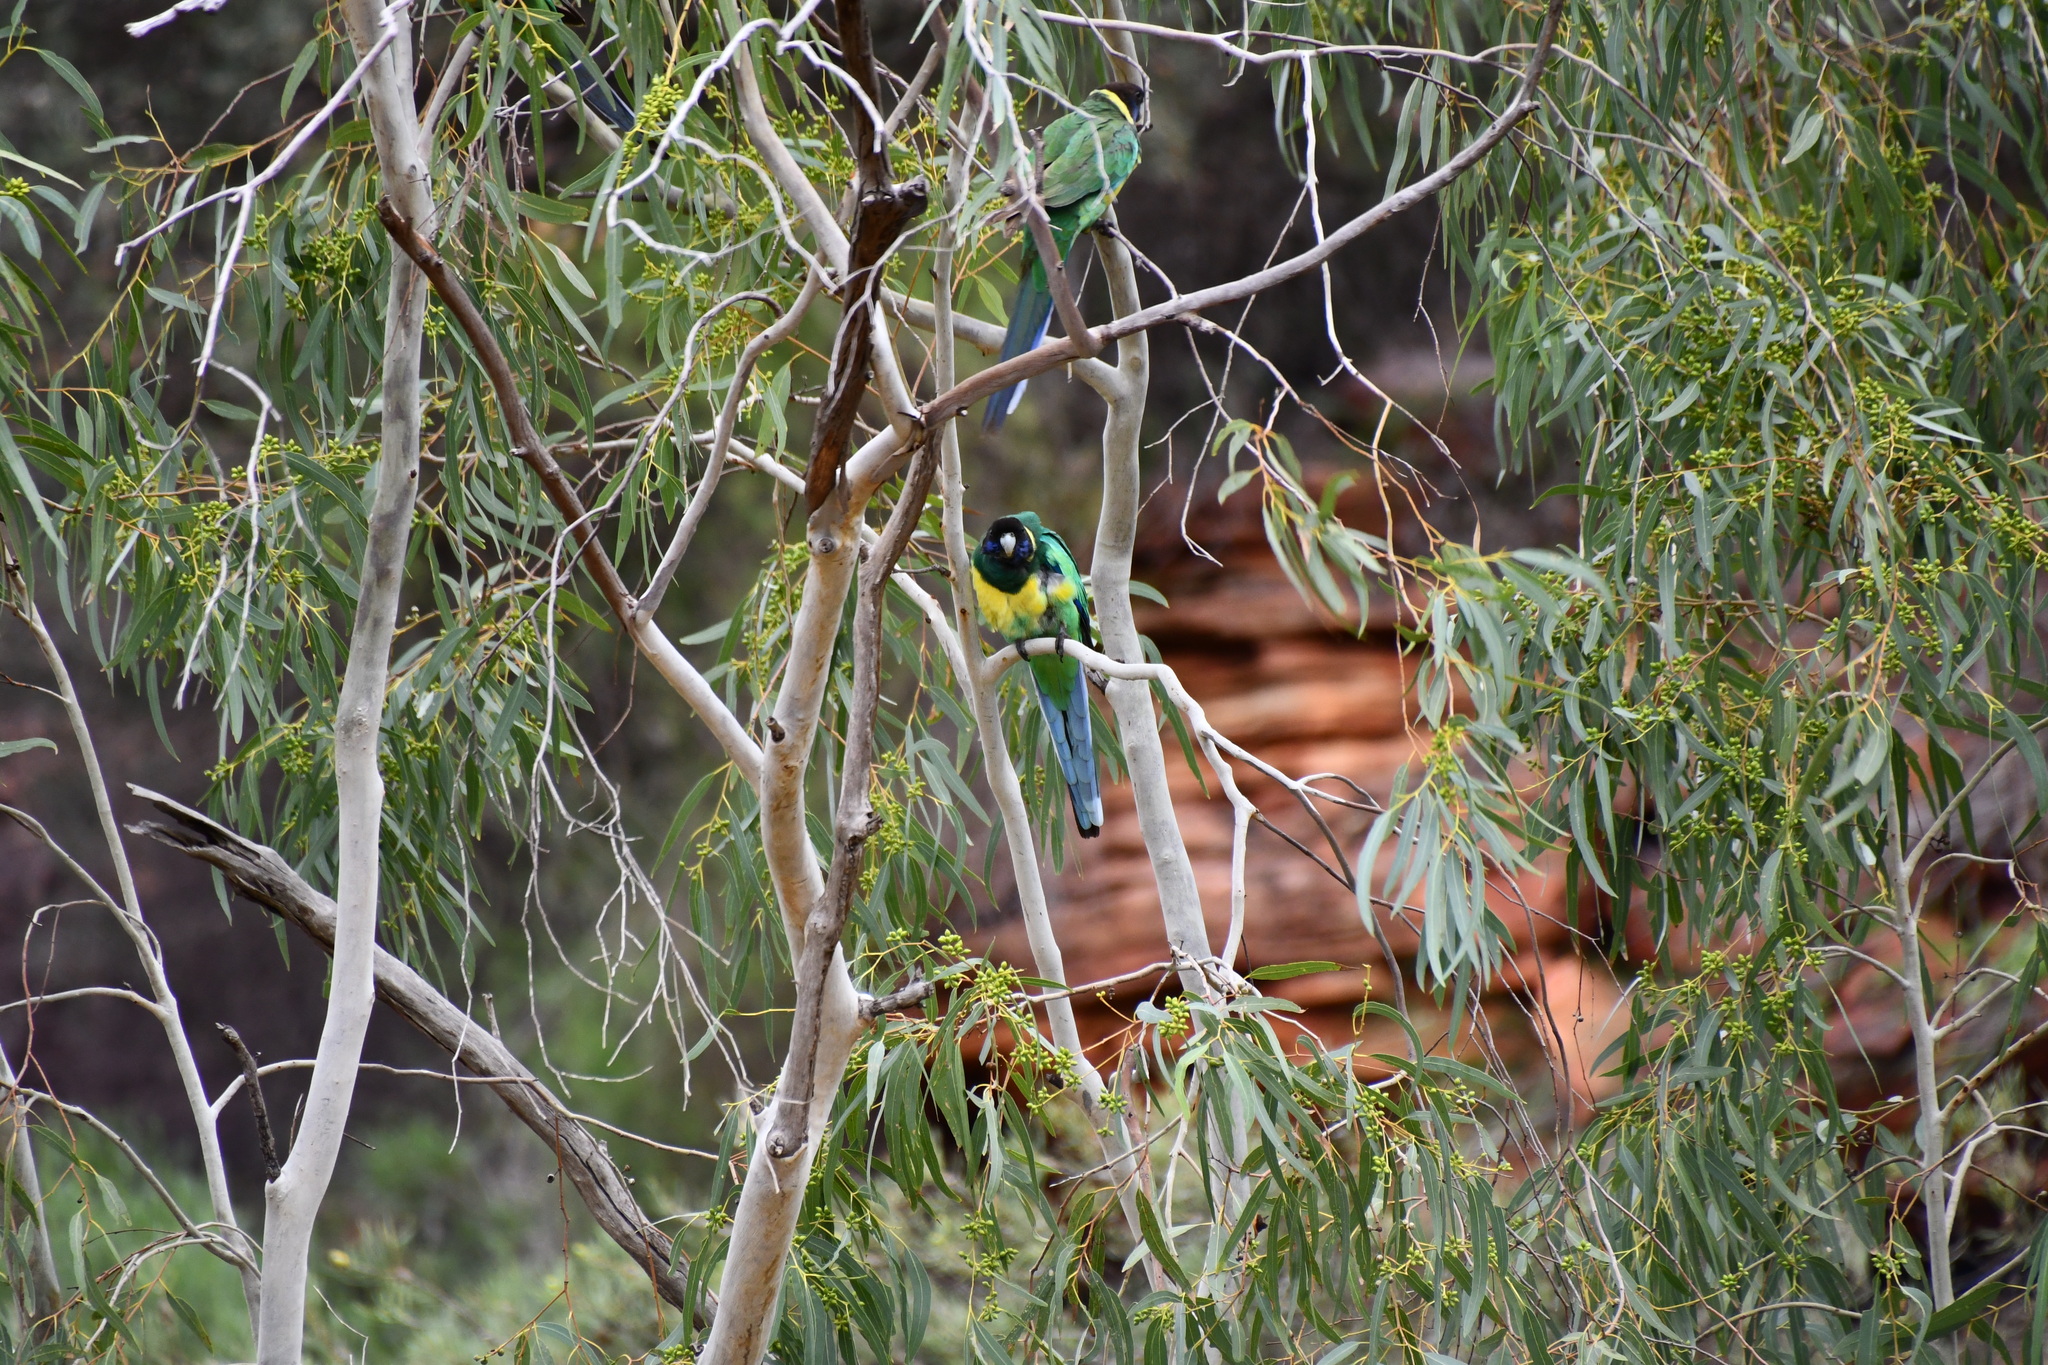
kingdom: Animalia
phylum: Chordata
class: Aves
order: Psittaciformes
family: Psittacidae
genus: Barnardius
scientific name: Barnardius zonarius
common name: Australian ringneck
